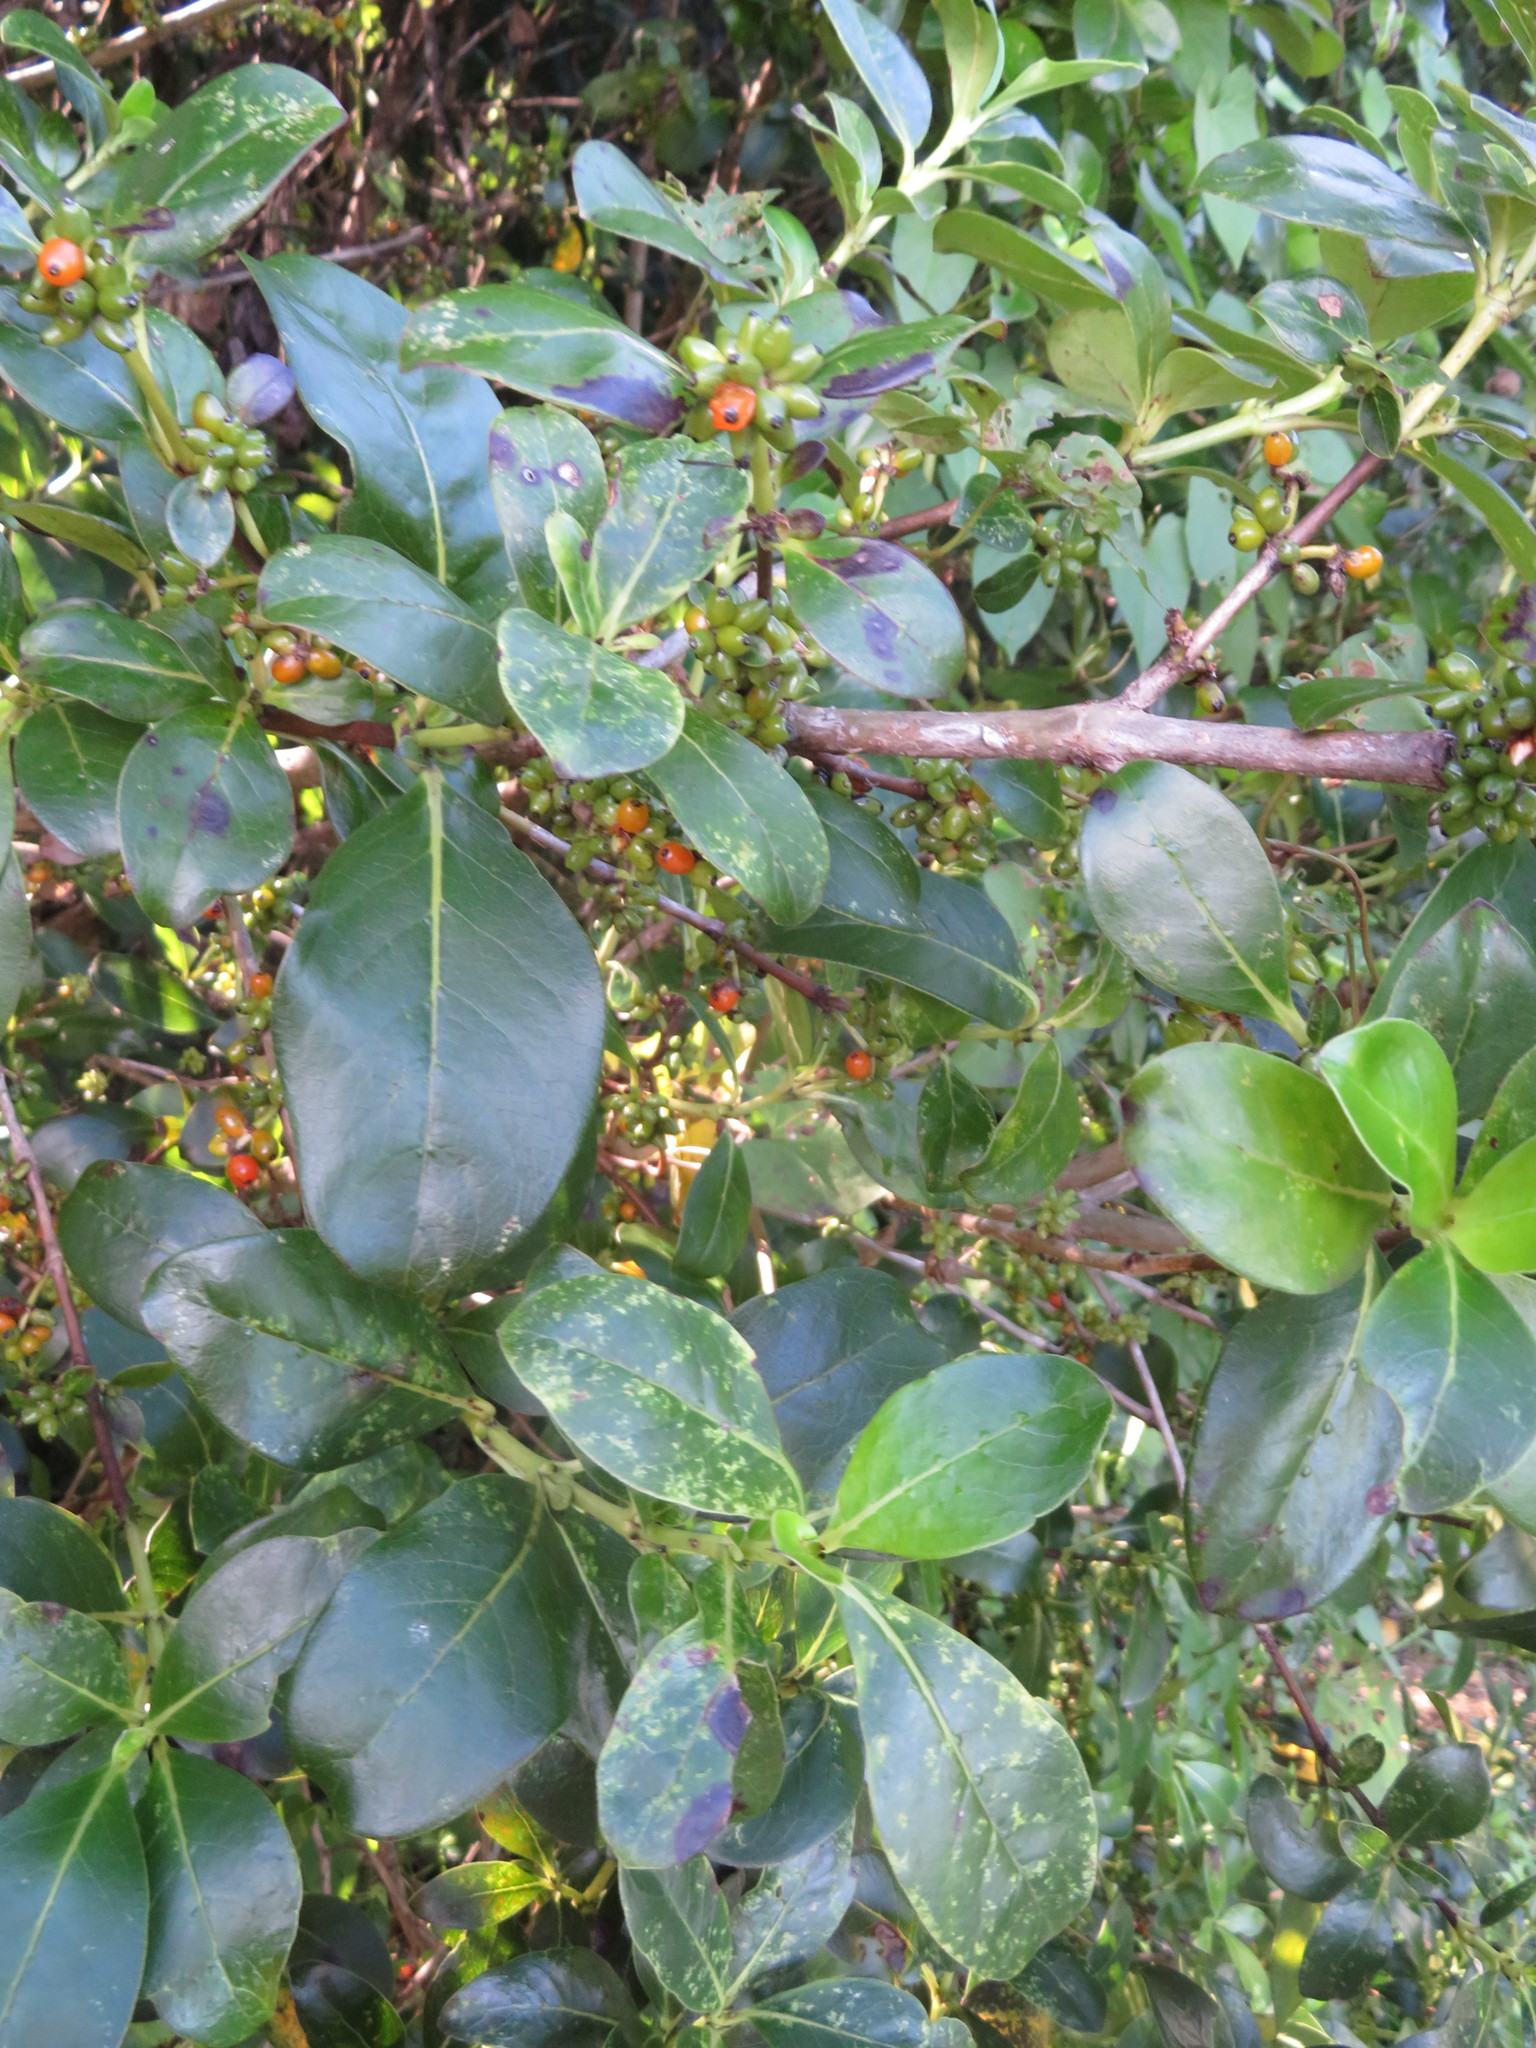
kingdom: Plantae
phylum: Tracheophyta
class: Magnoliopsida
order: Gentianales
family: Rubiaceae
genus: Coprosma
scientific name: Coprosma robusta
